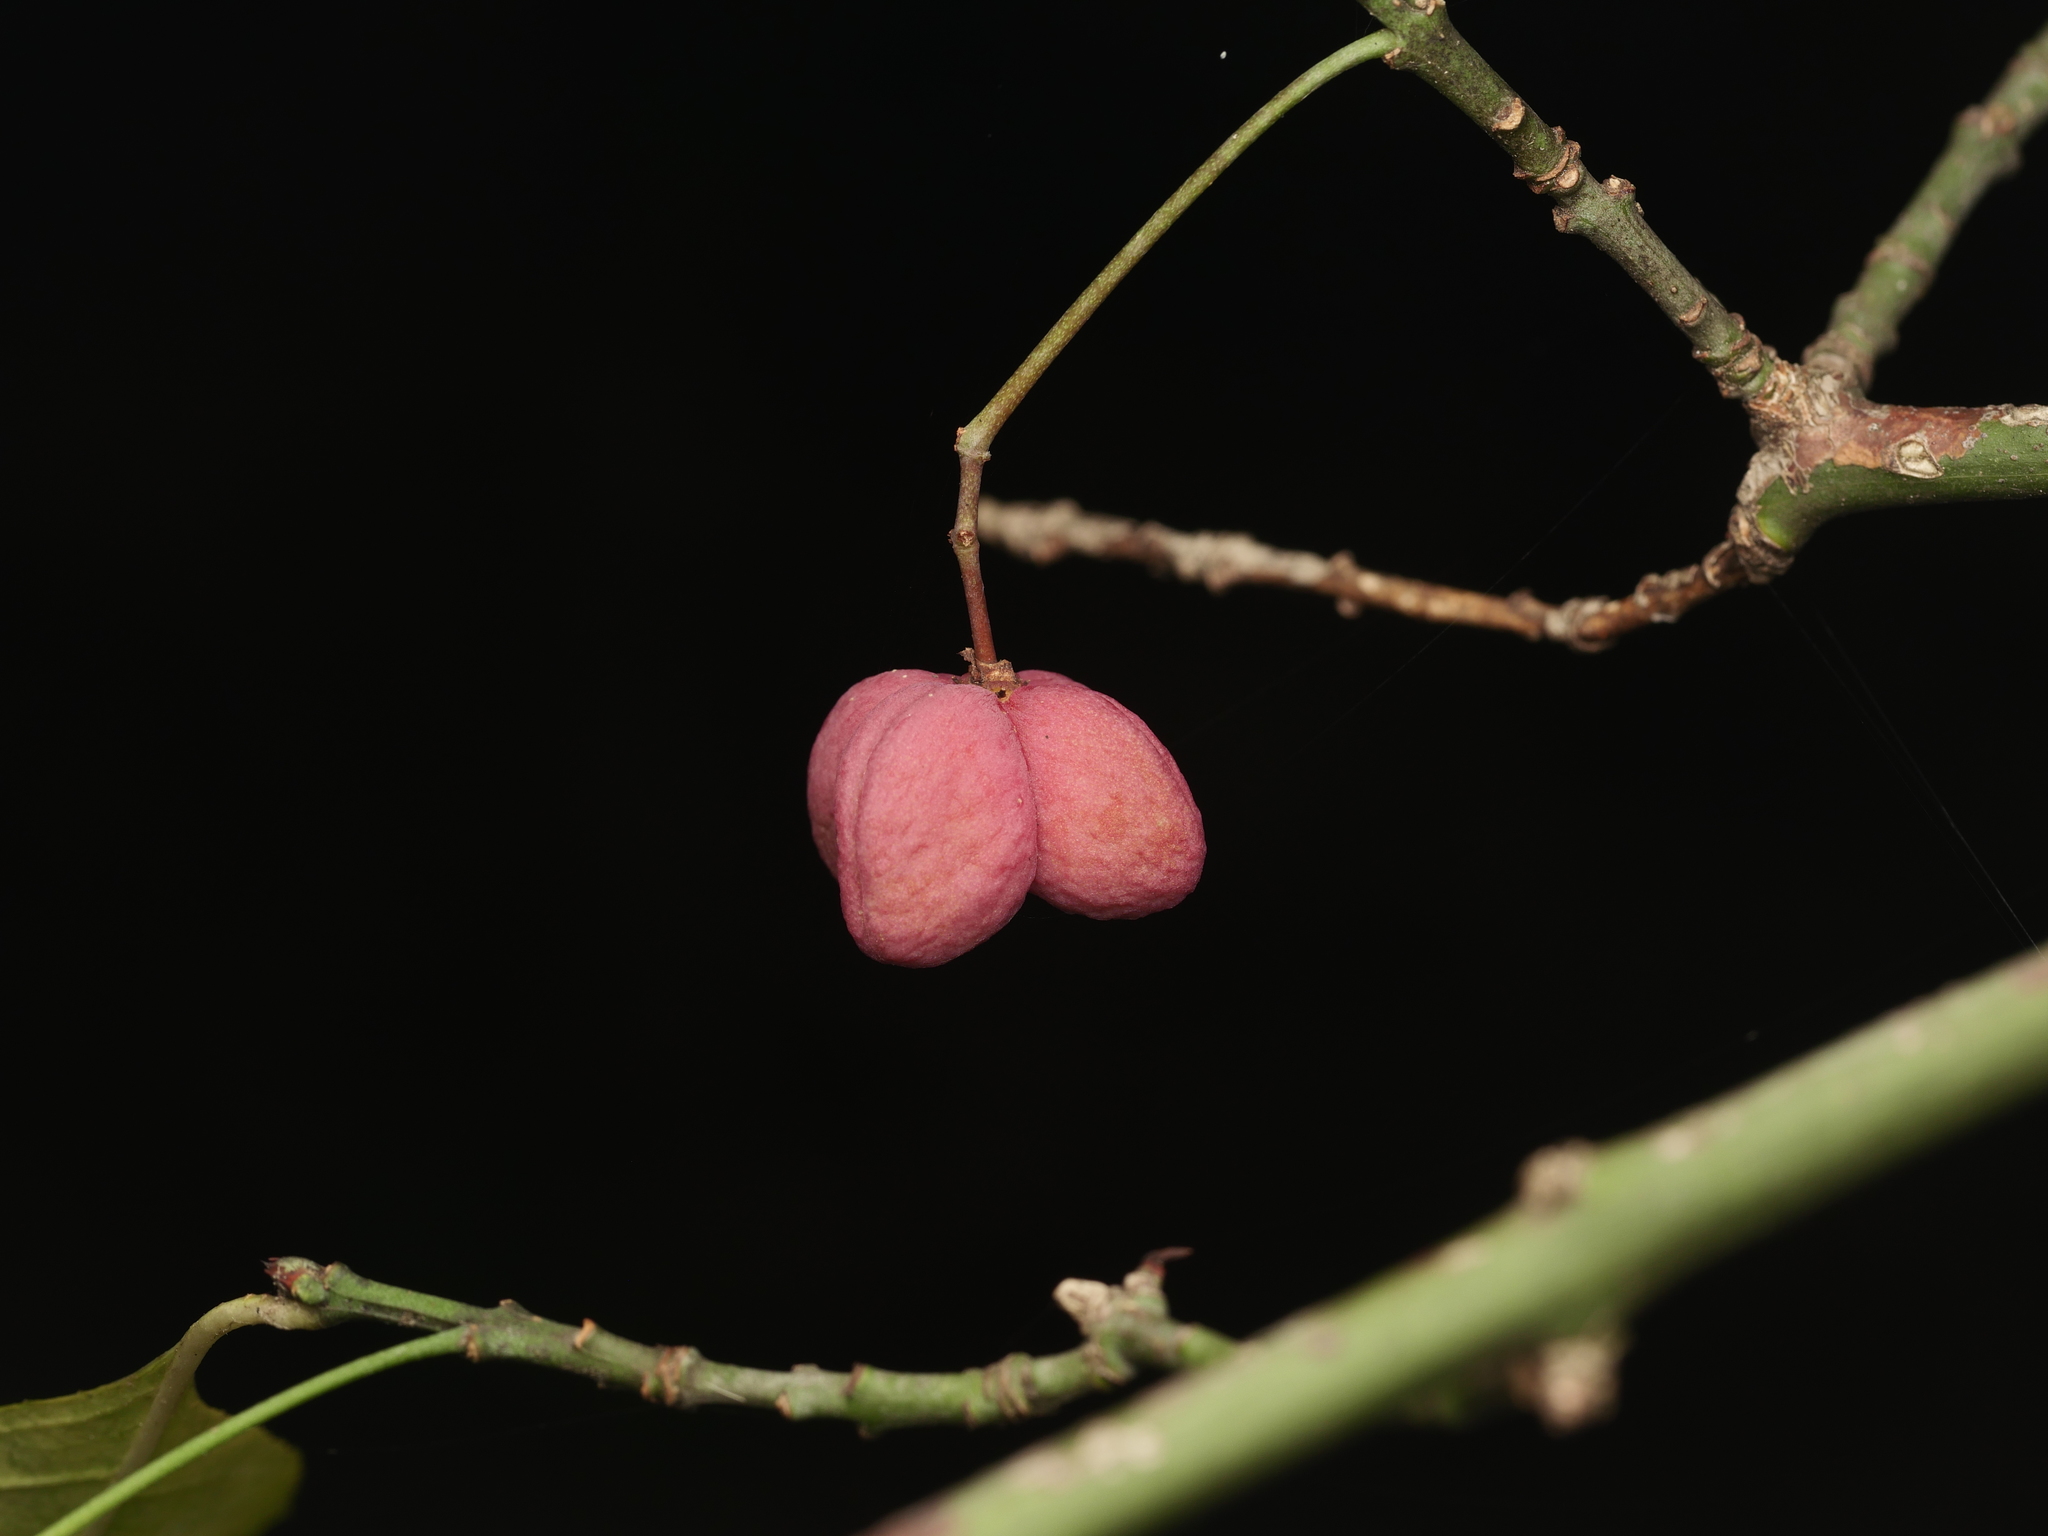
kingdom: Plantae
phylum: Tracheophyta
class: Magnoliopsida
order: Celastrales
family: Celastraceae
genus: Euonymus
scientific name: Euonymus europaeus
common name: Spindle
